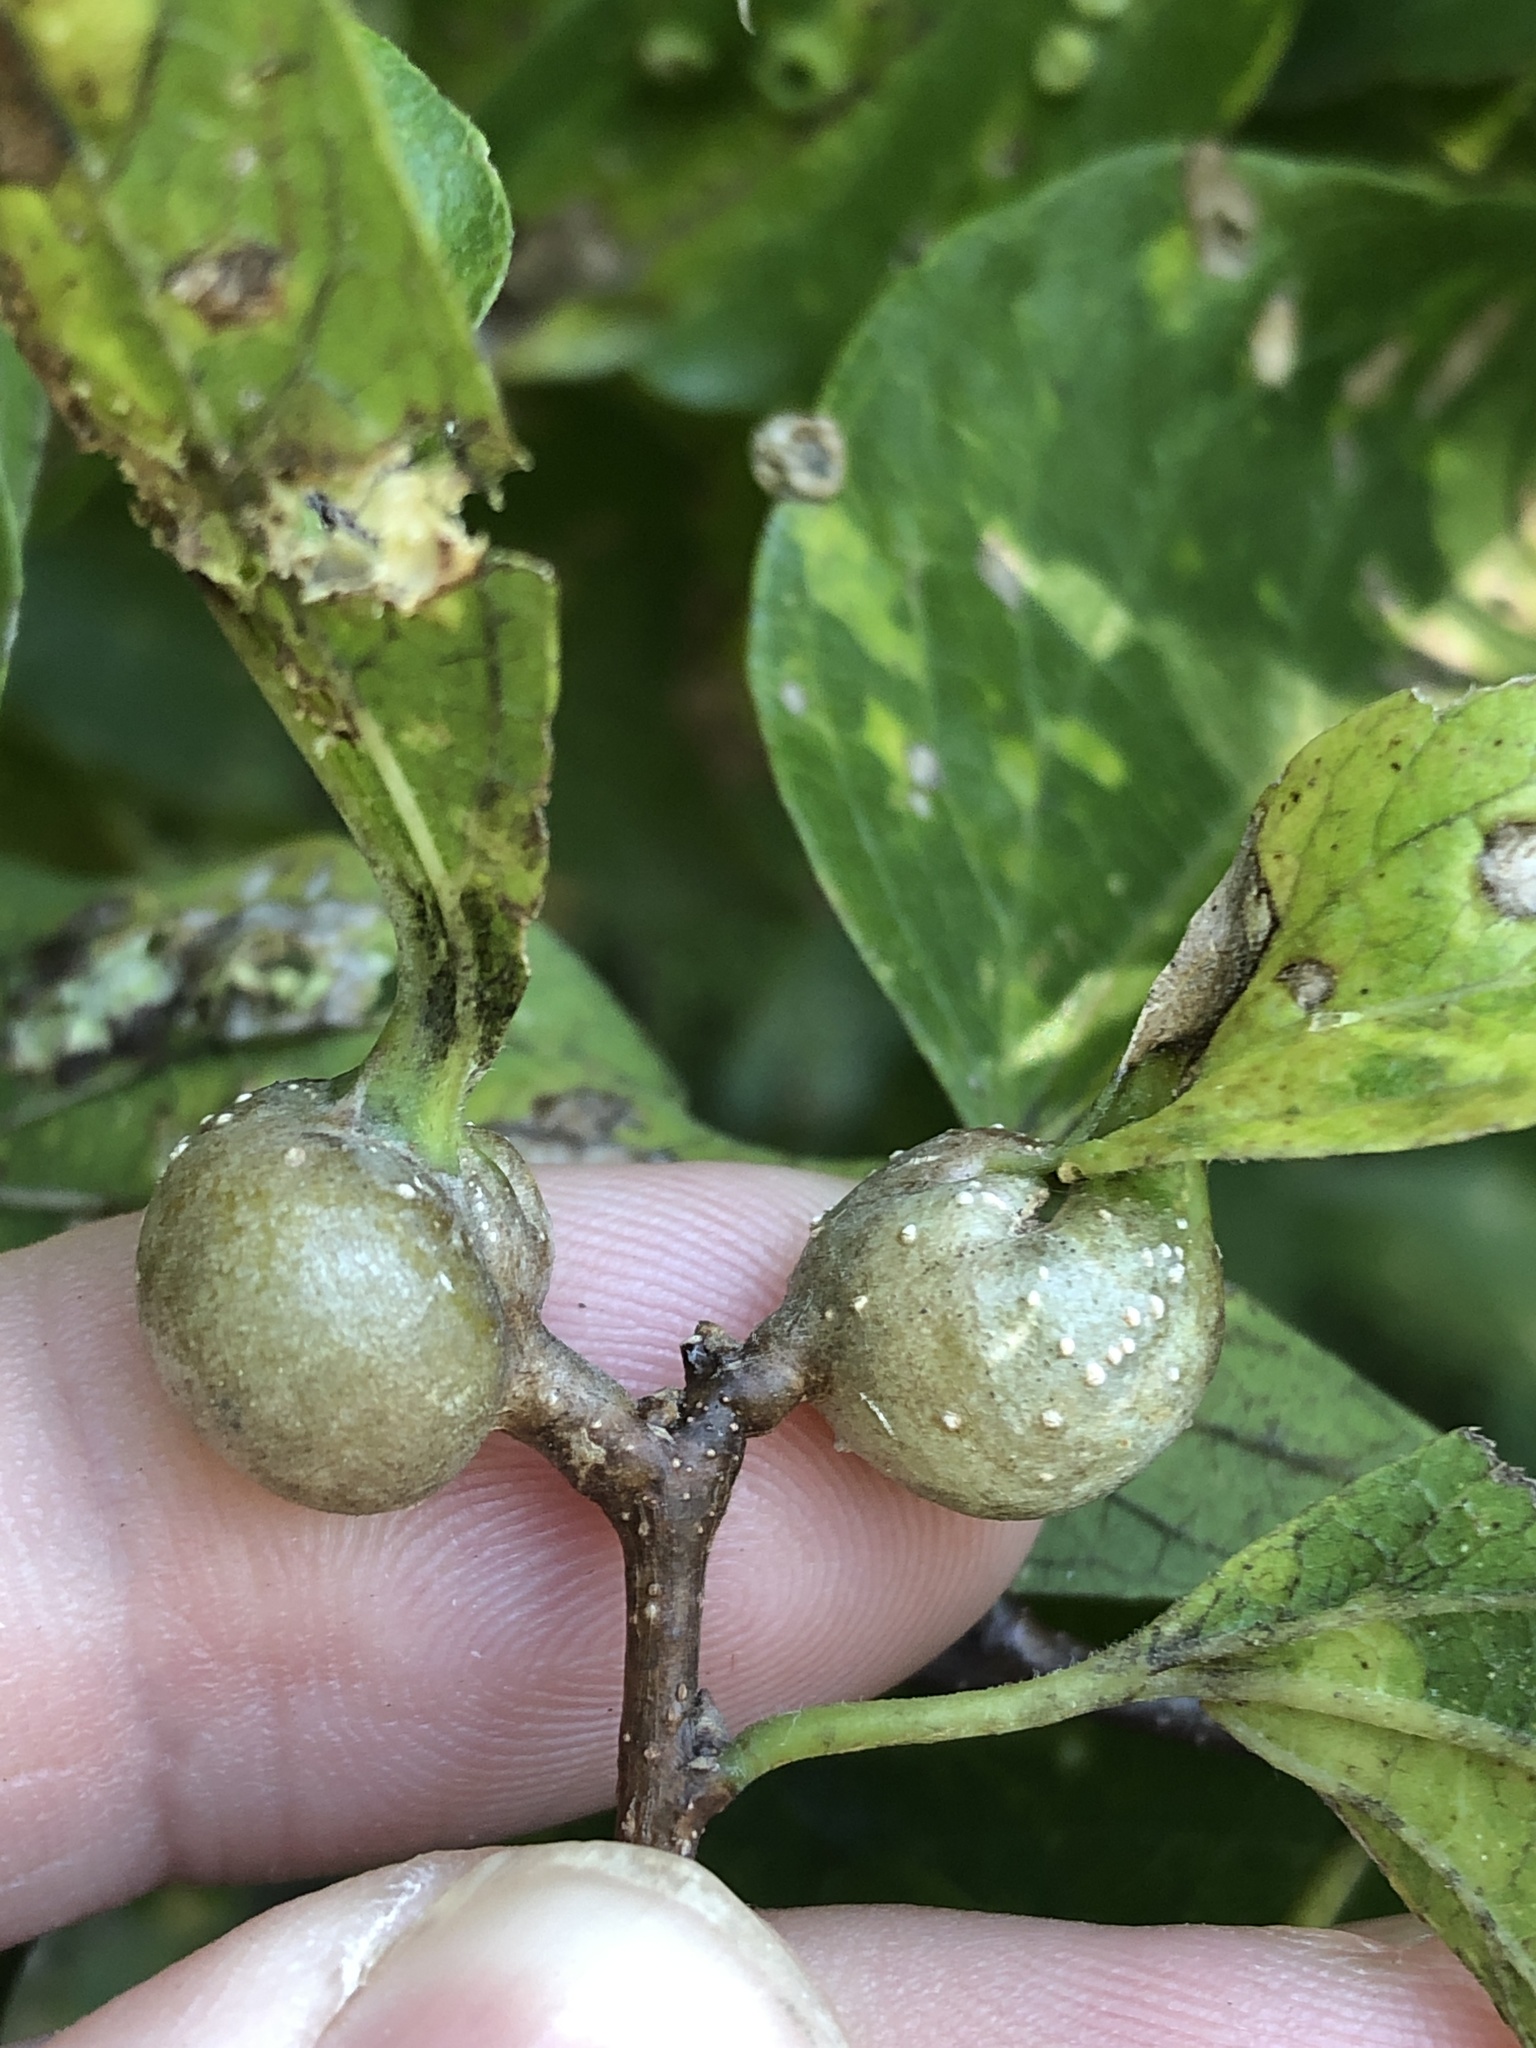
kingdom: Animalia
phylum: Arthropoda
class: Insecta
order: Hemiptera
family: Aphalaridae
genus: Pachypsylla
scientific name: Pachypsylla venusta
